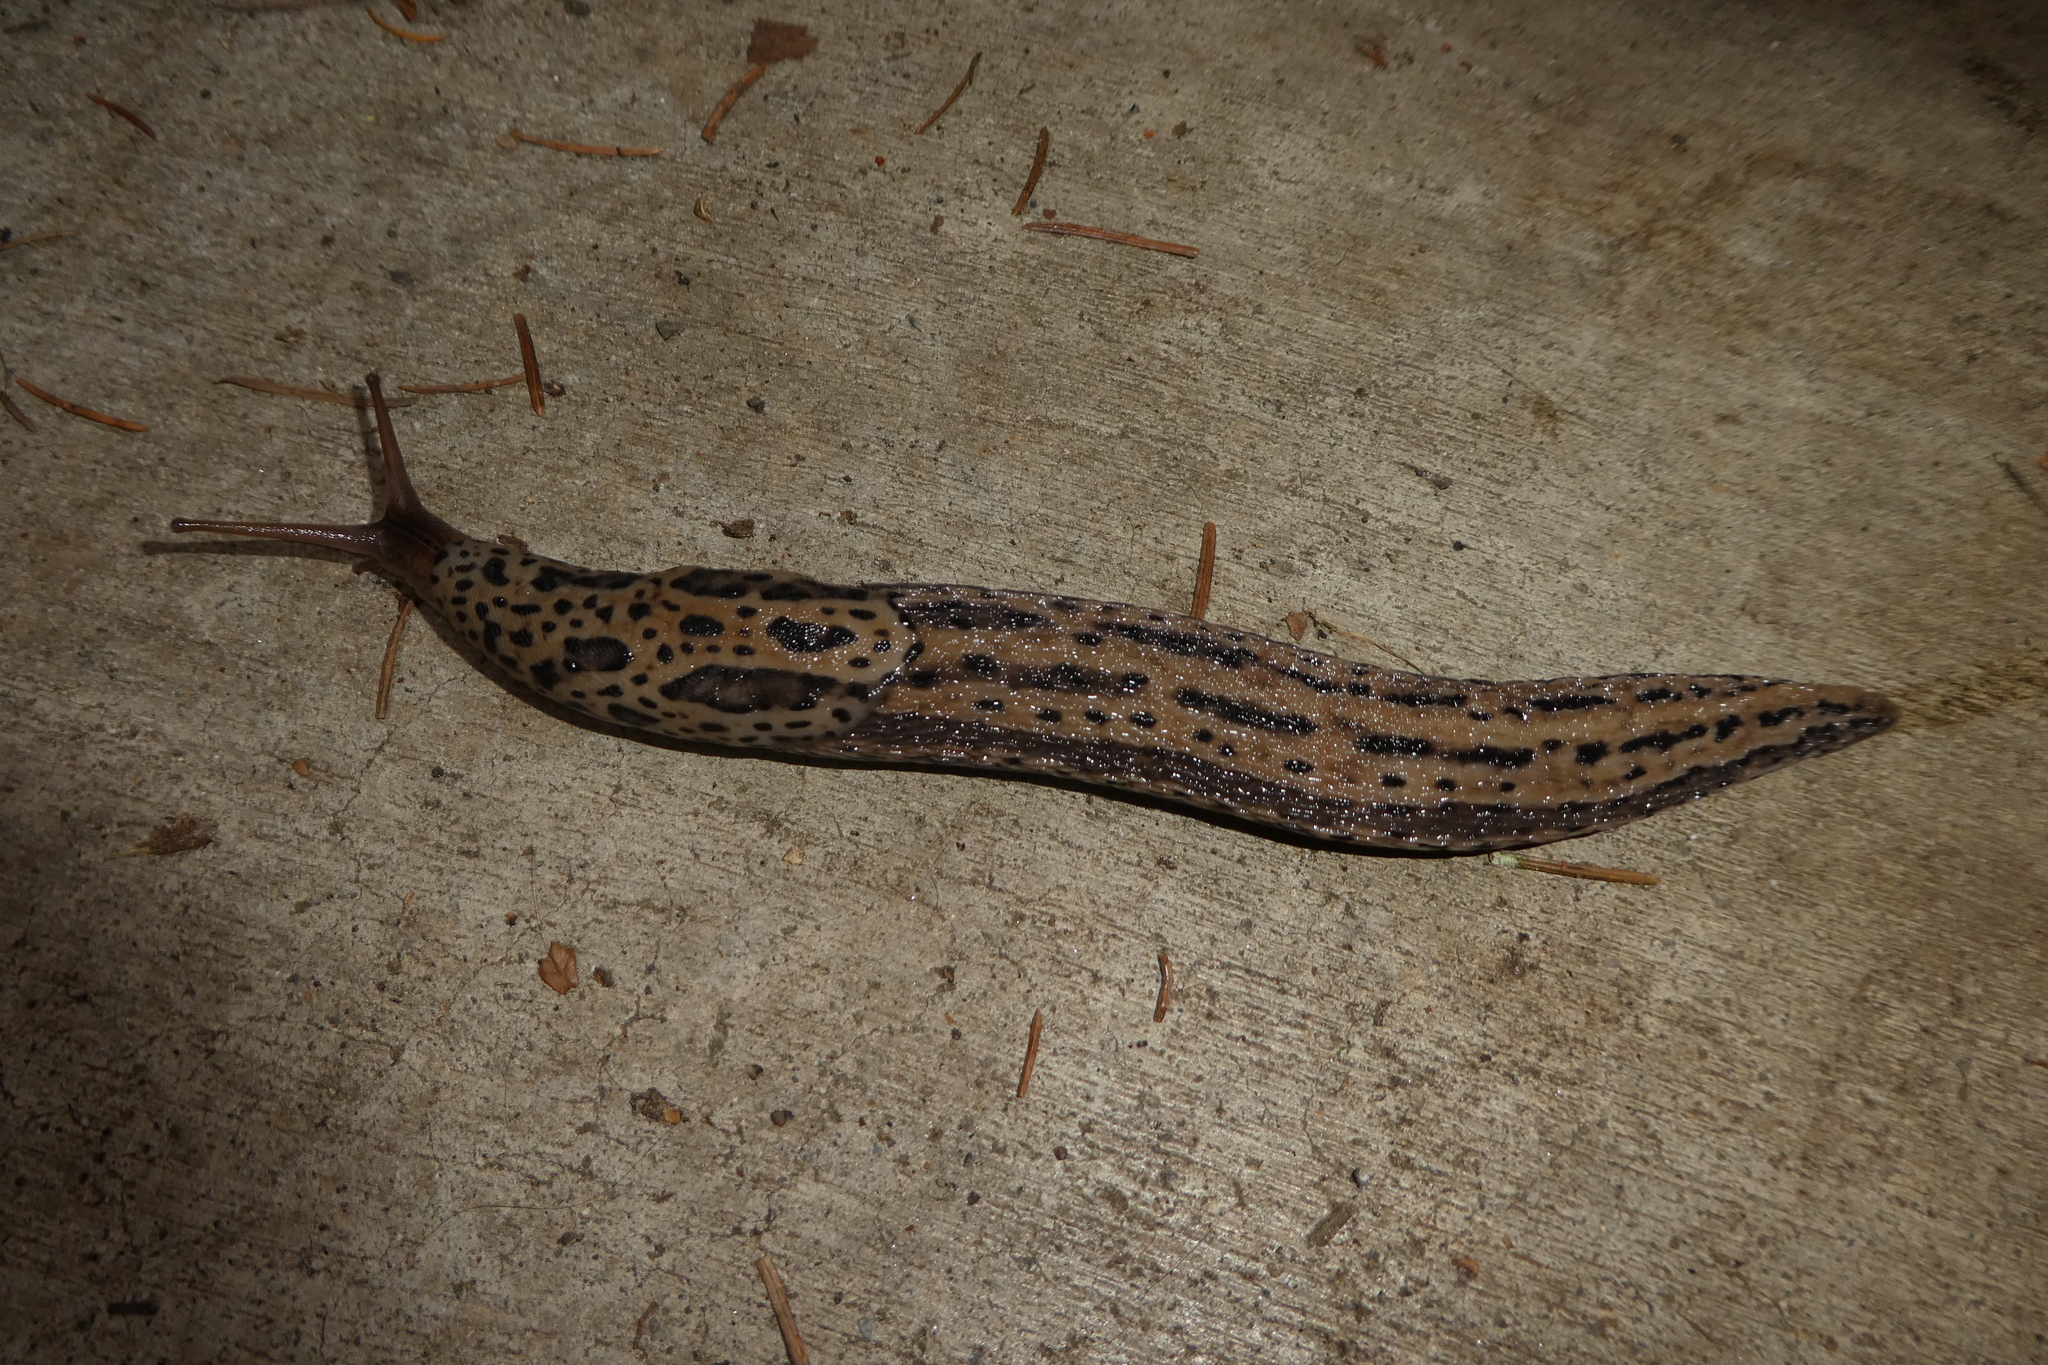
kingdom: Animalia
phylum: Mollusca
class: Gastropoda
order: Stylommatophora
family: Limacidae
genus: Limax
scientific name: Limax maximus
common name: Great grey slug
